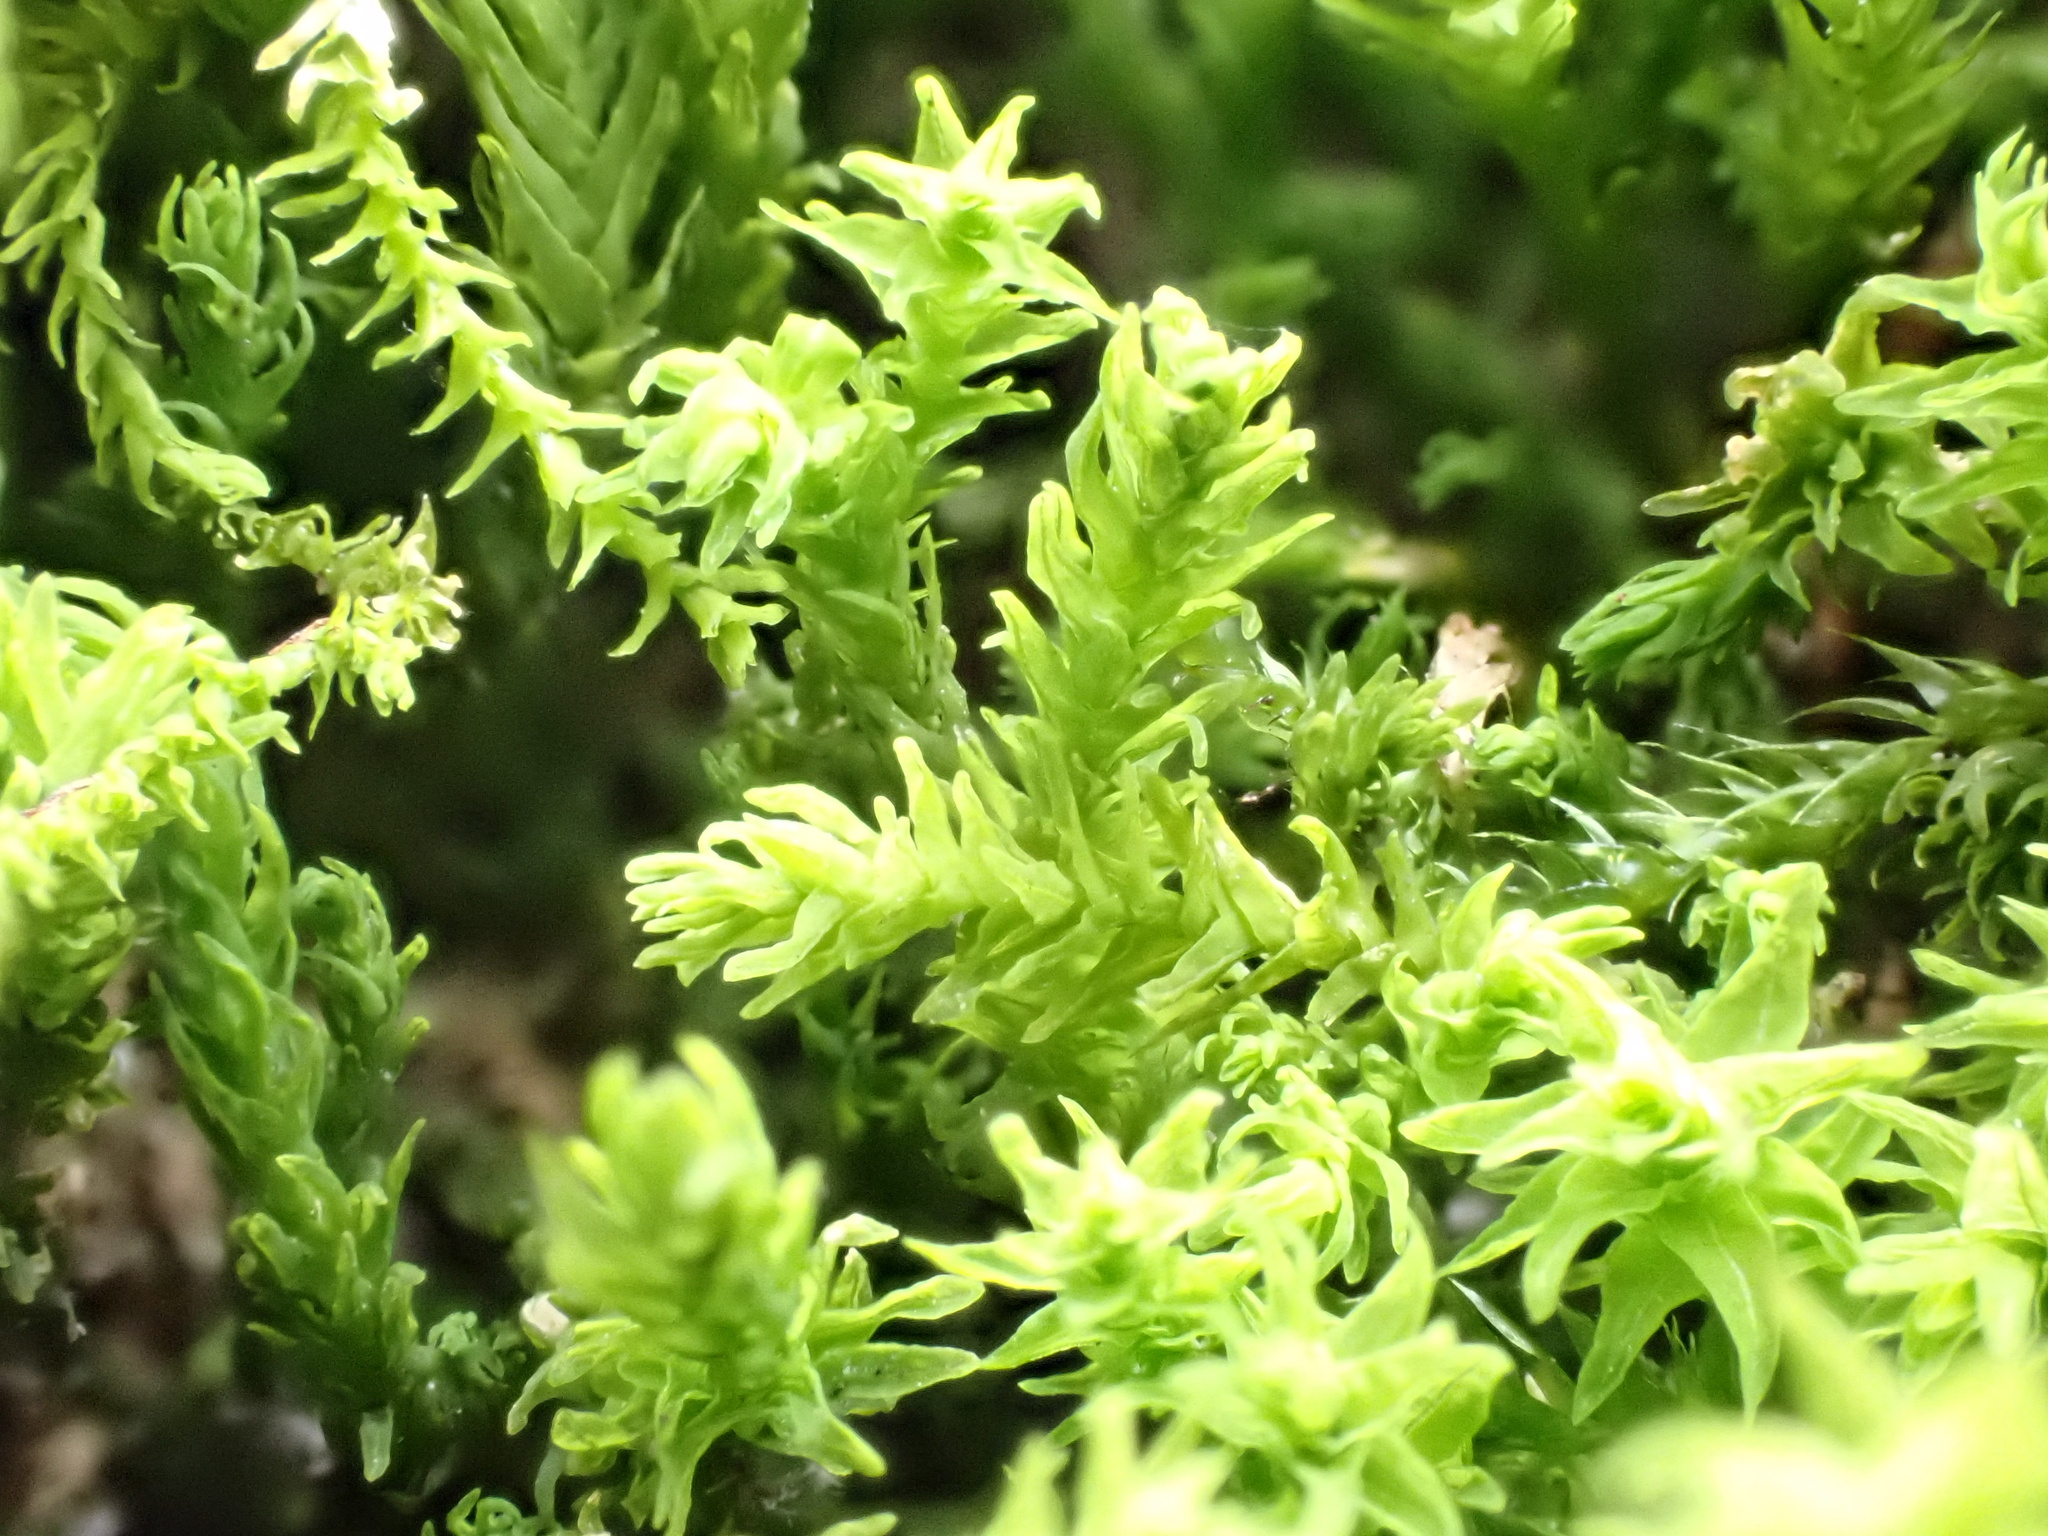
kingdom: Plantae
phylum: Bryophyta
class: Bryopsida
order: Hypnales
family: Anomodontaceae
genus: Anomodon
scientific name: Anomodon viticulosus
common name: Tall anomodon
